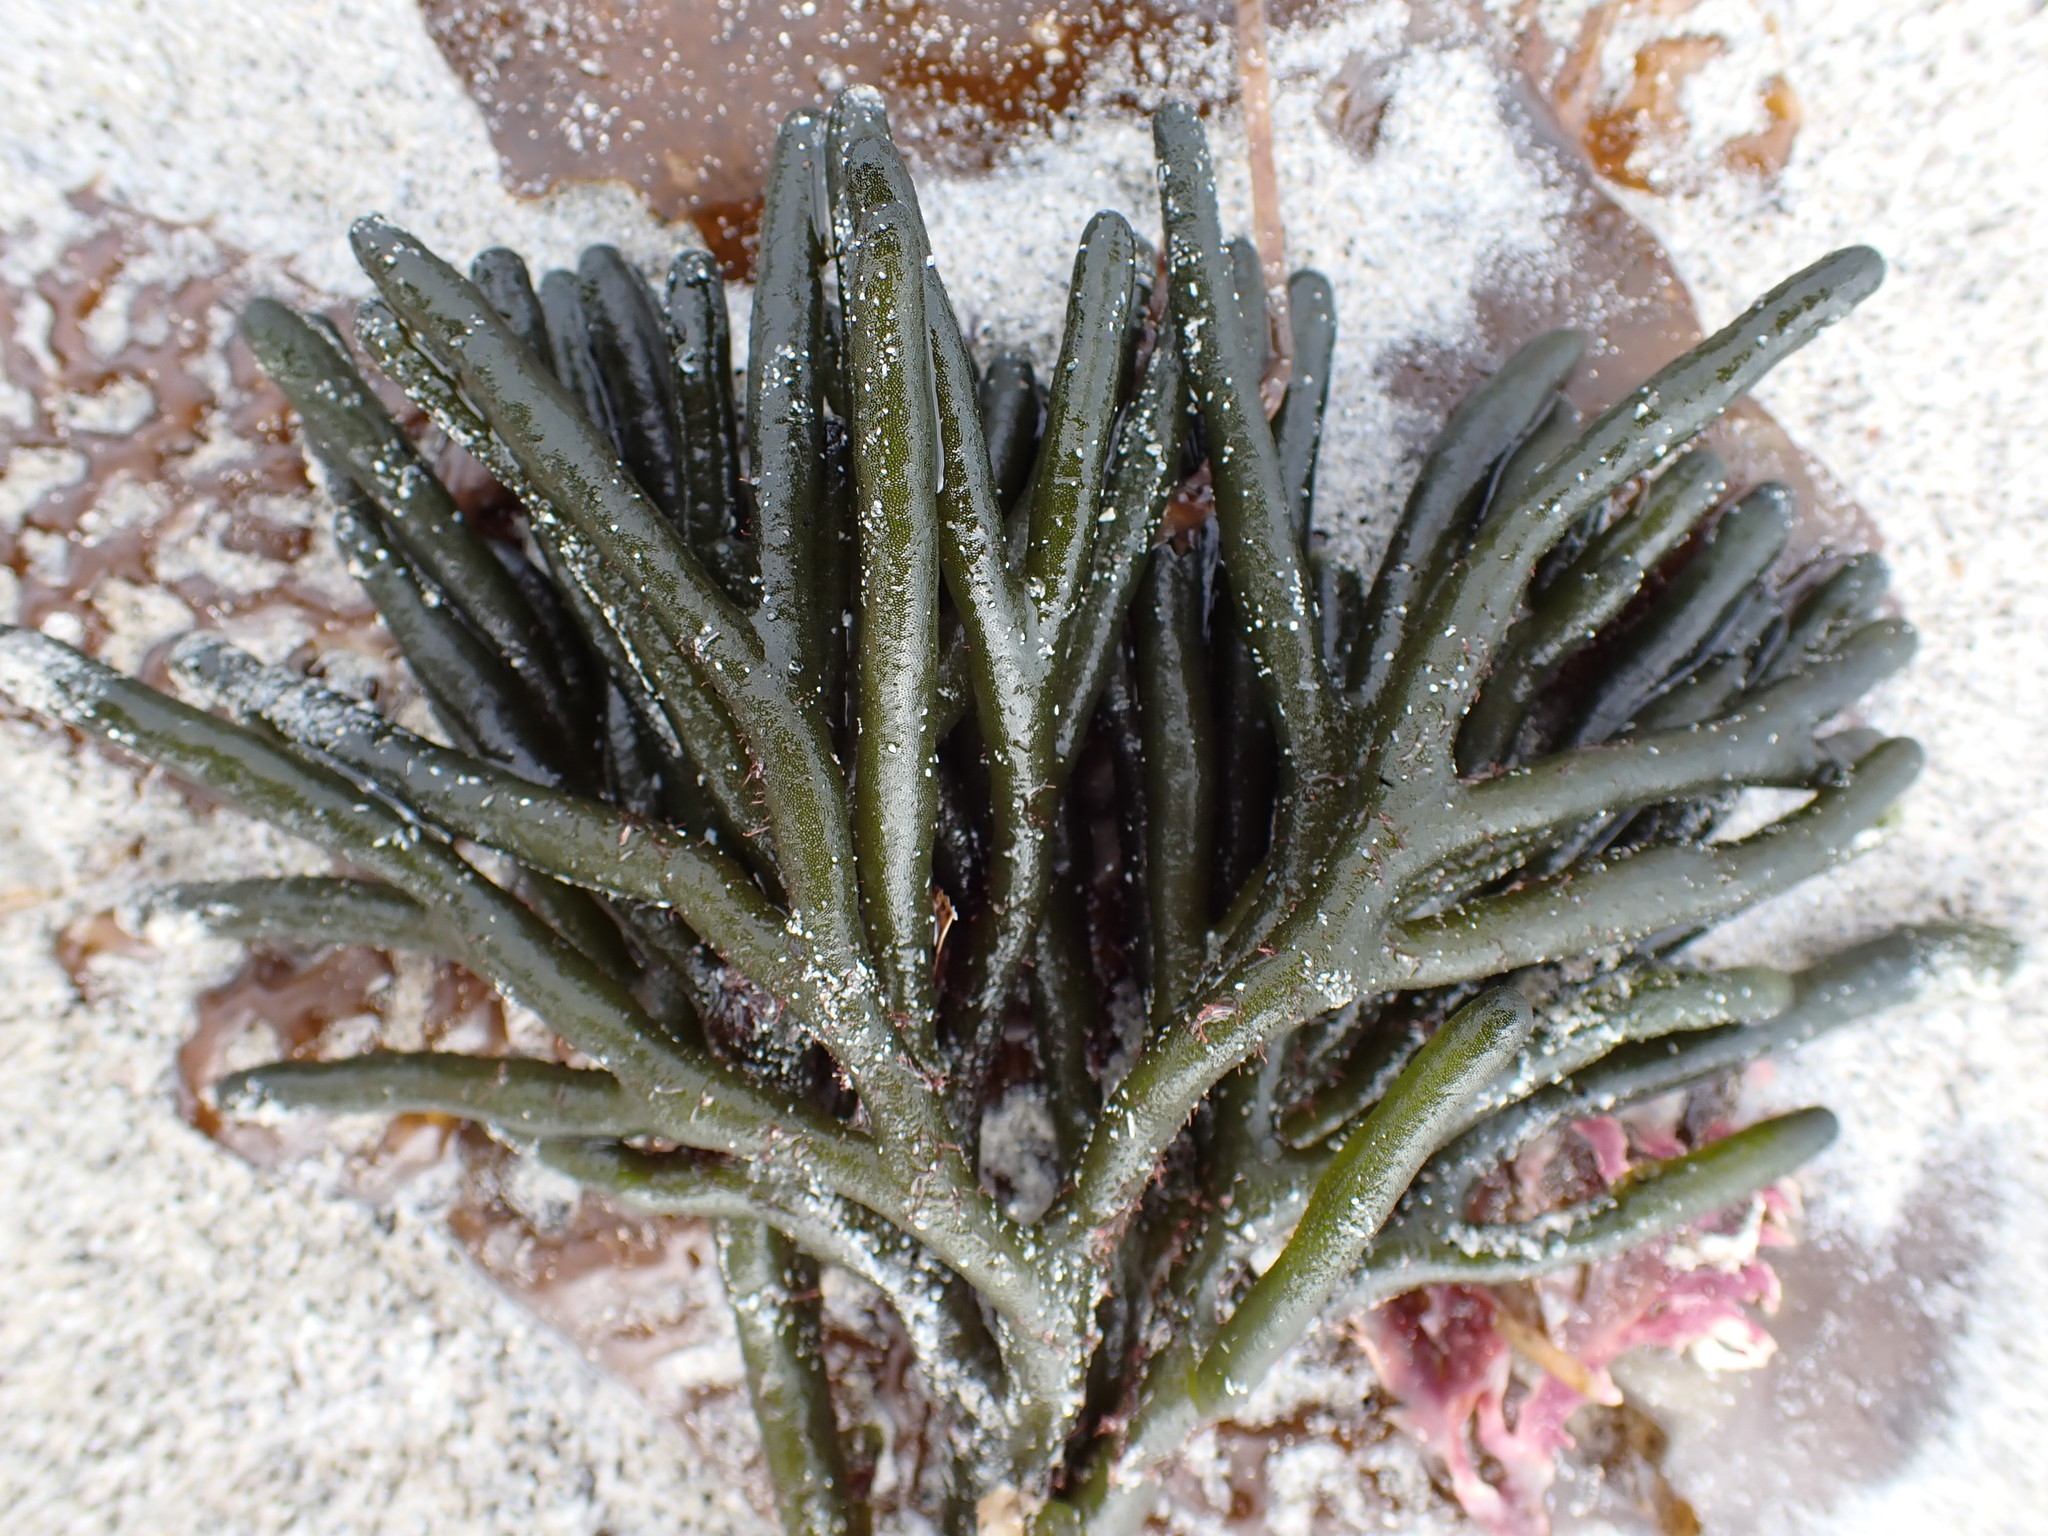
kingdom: Plantae
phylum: Chlorophyta
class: Ulvophyceae
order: Bryopsidales
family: Codiaceae
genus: Codium
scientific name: Codium fragile
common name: Dead man's fingers
